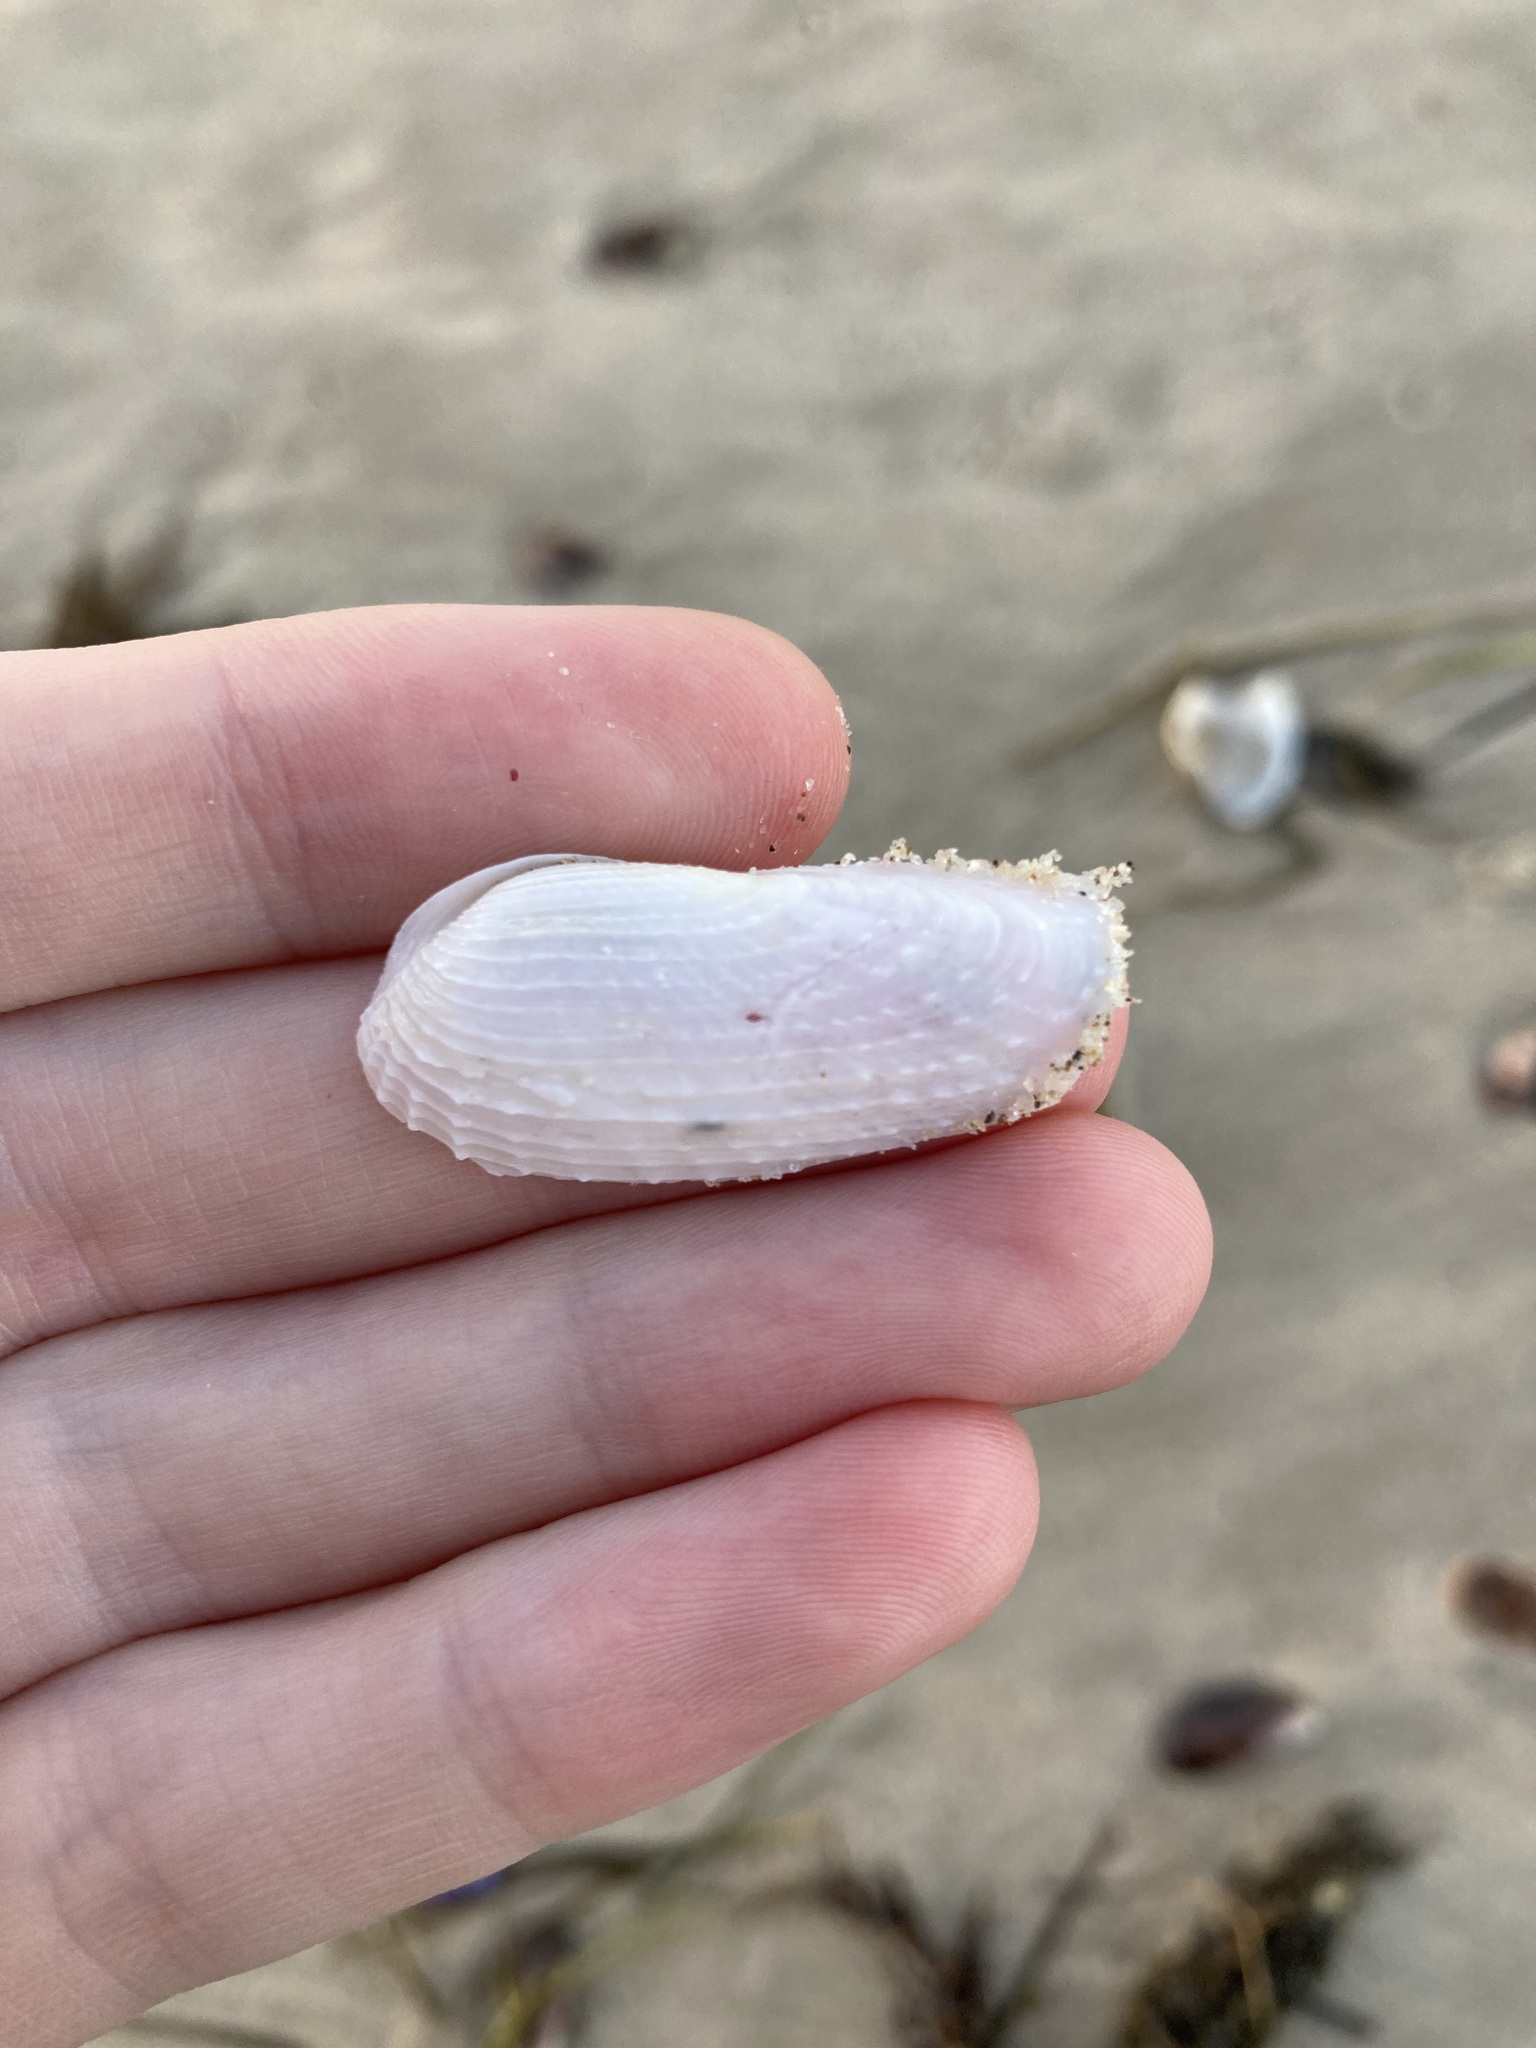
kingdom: Animalia
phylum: Mollusca
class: Bivalvia
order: Myida
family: Pholadidae
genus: Barnea
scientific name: Barnea australasiae
